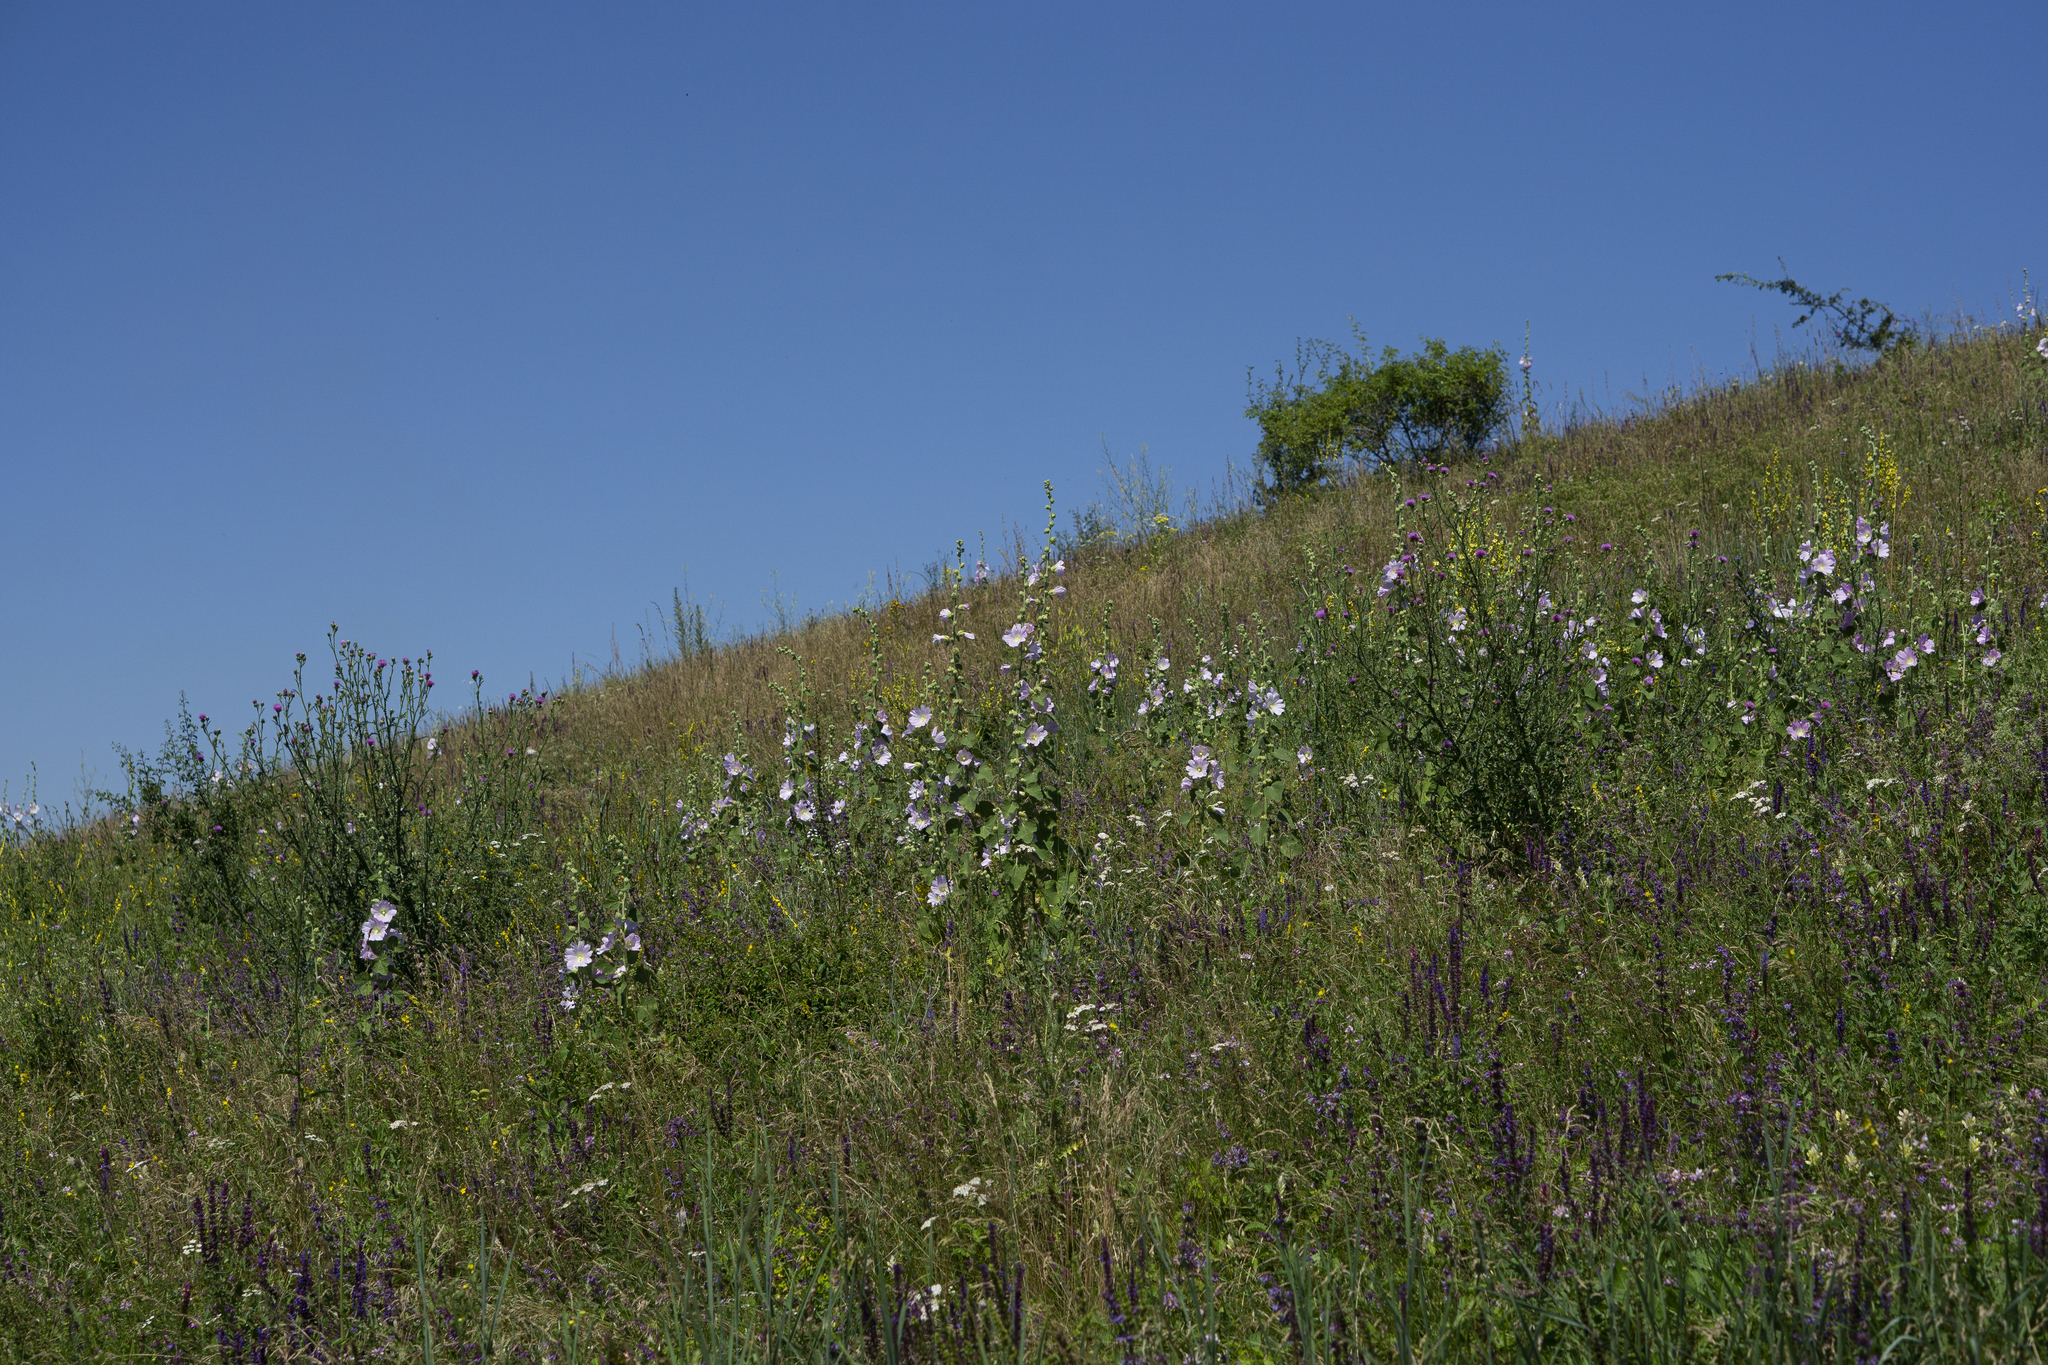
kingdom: Plantae
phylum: Tracheophyta
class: Magnoliopsida
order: Malvales
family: Malvaceae
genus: Alcea
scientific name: Alcea pallida
